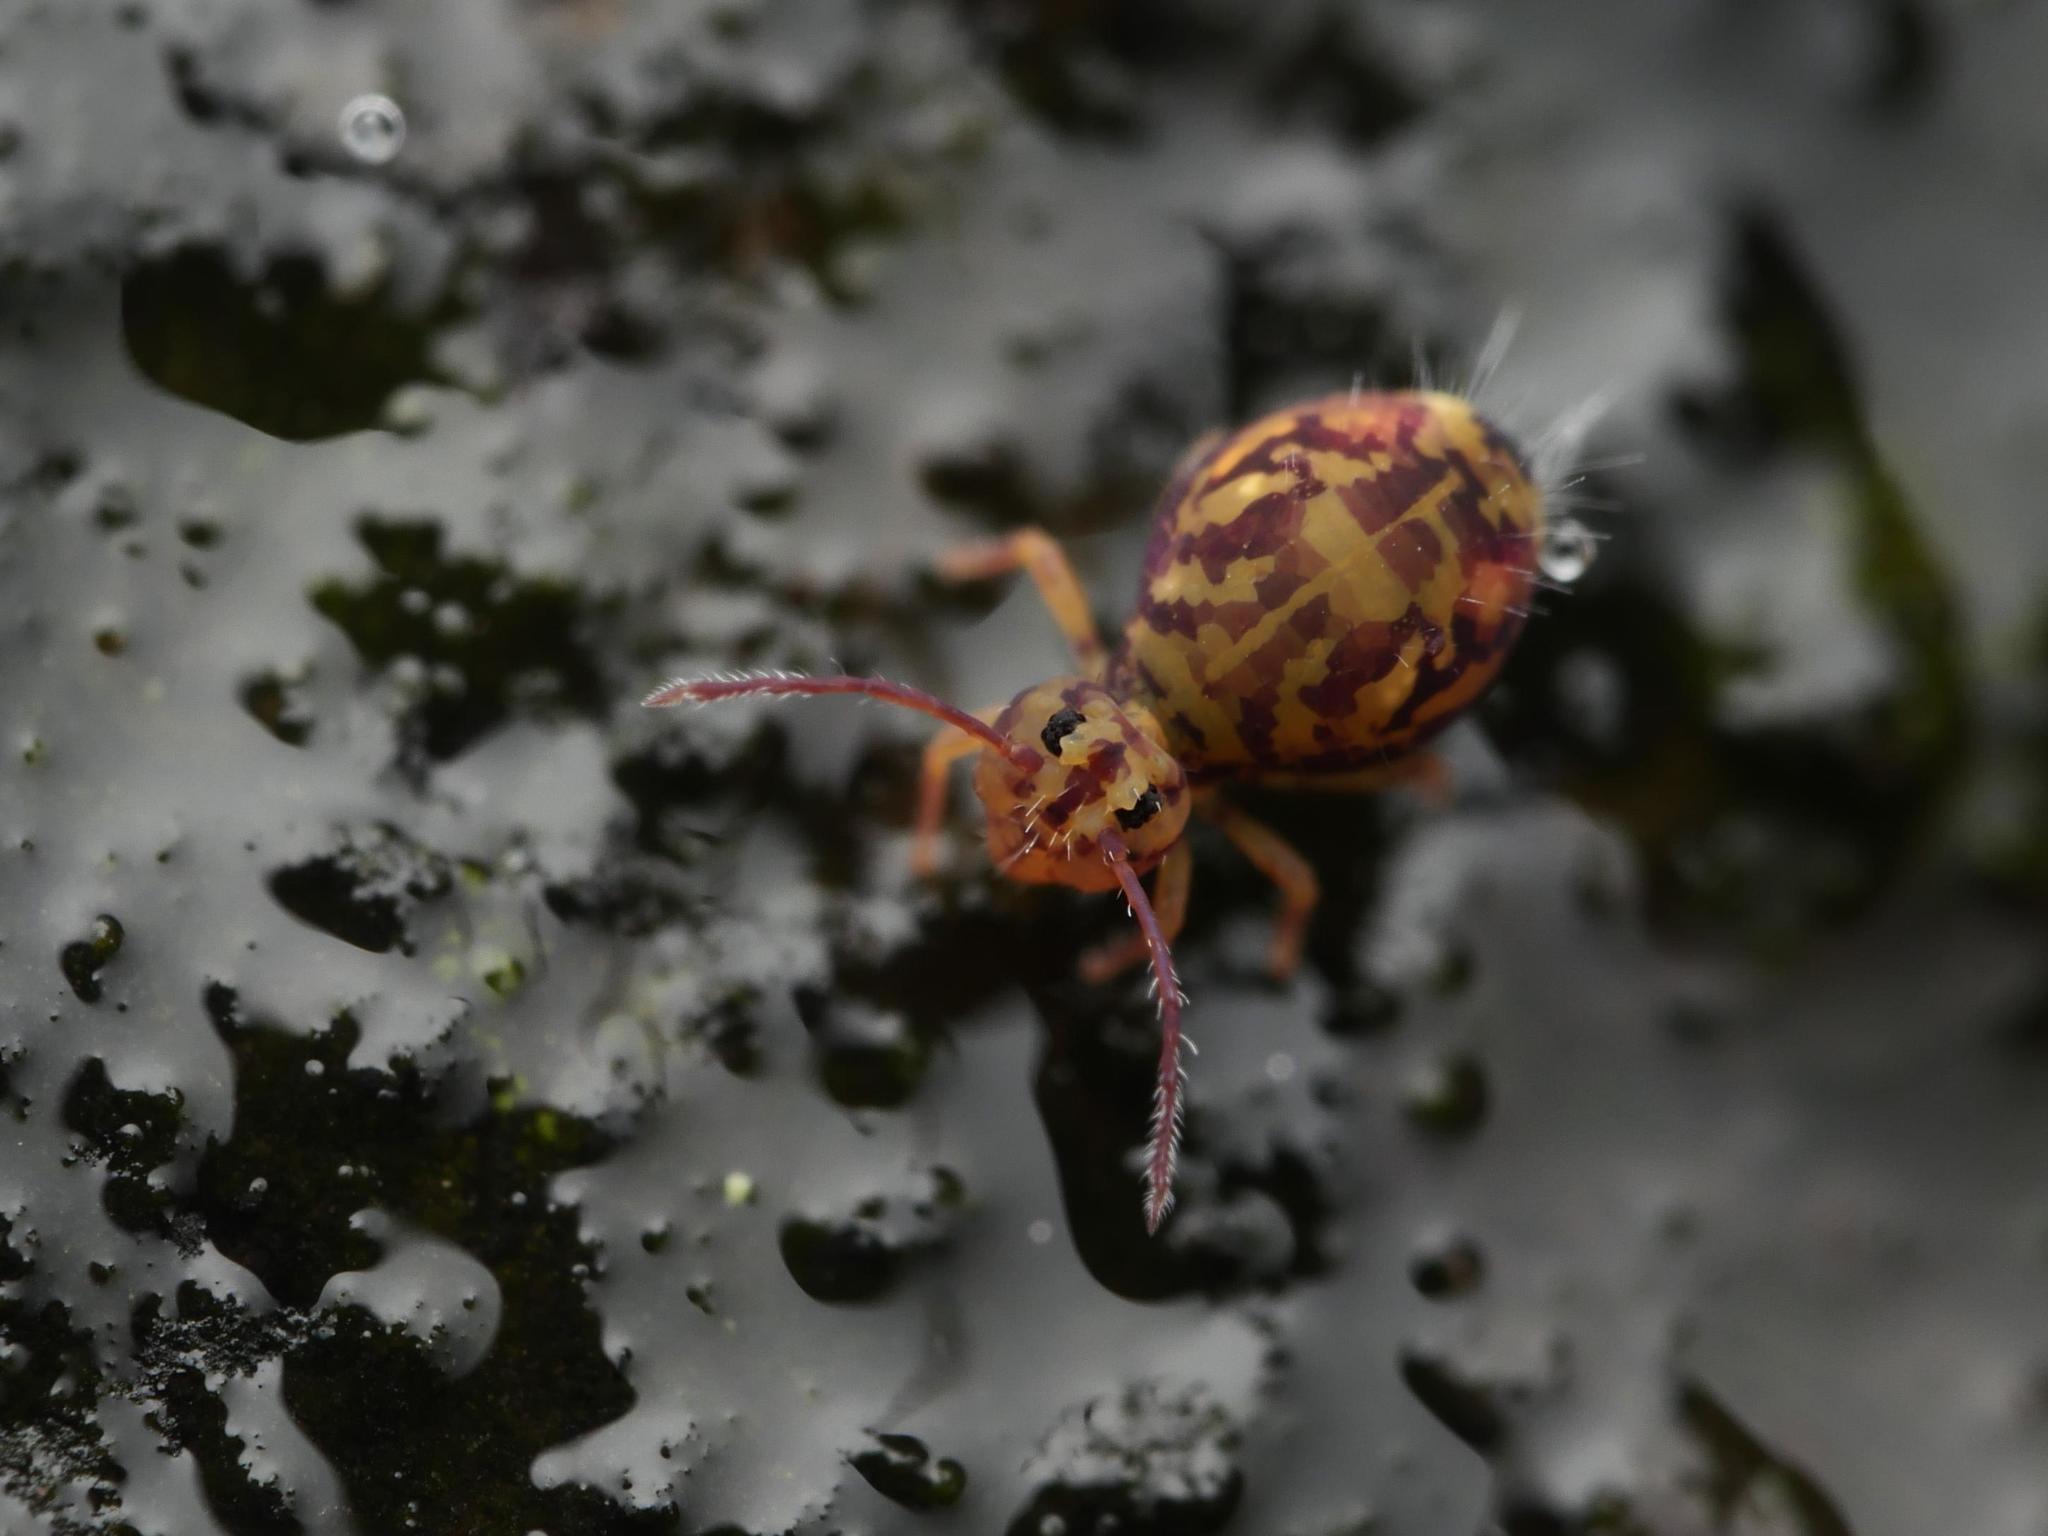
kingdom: Animalia
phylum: Arthropoda
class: Collembola
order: Symphypleona
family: Dicyrtomidae
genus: Dicyrtomina
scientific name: Dicyrtomina ornata
